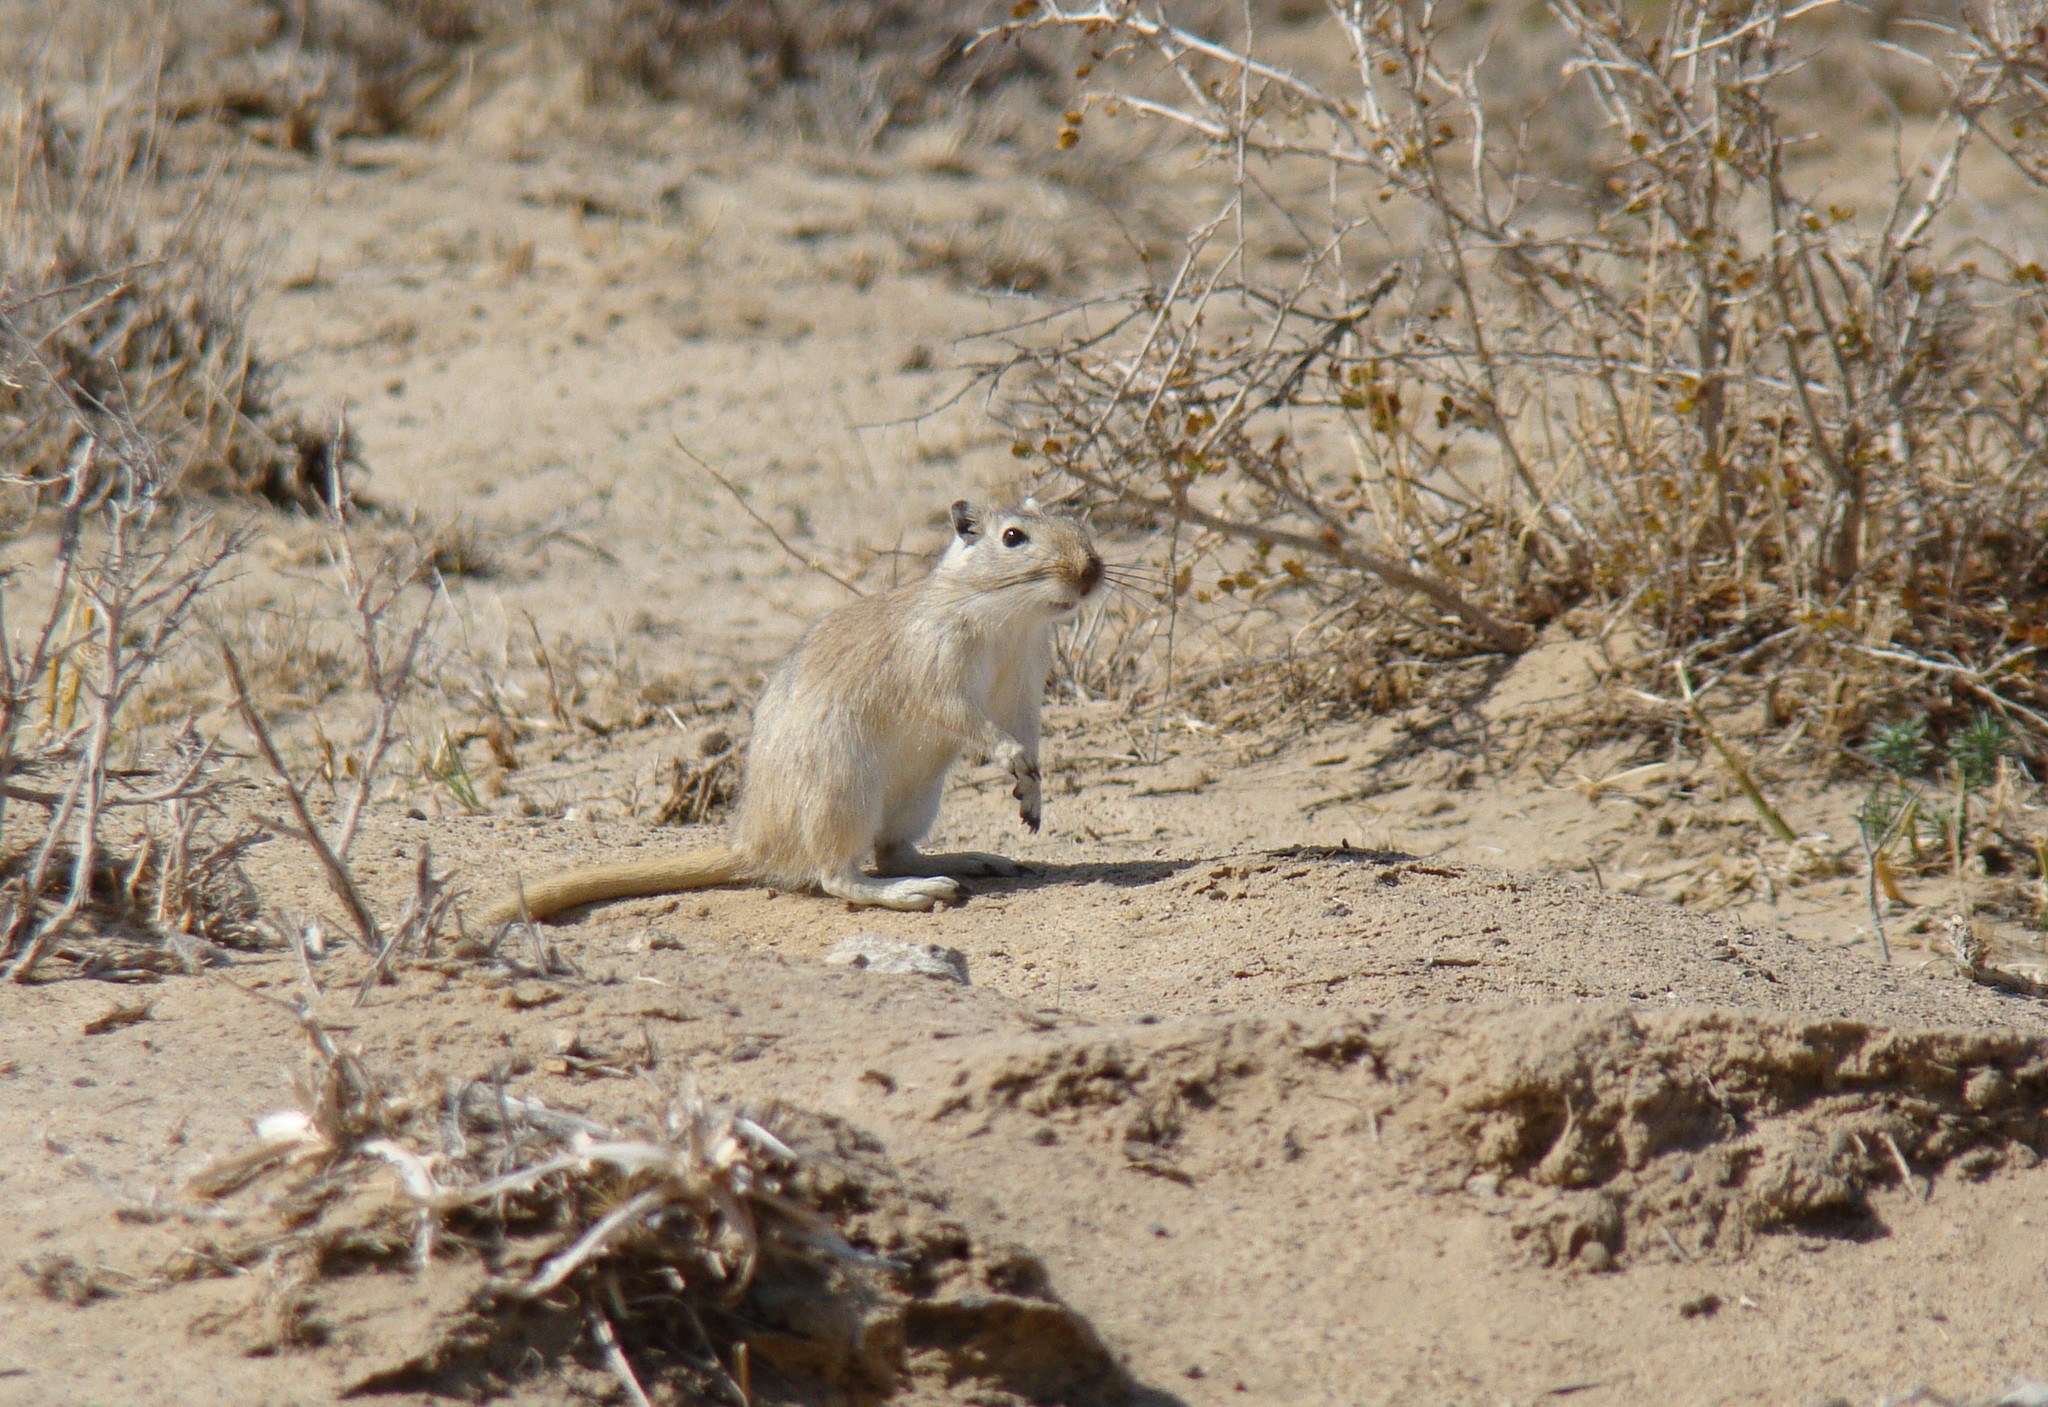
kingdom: Animalia
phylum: Chordata
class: Mammalia
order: Rodentia
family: Muridae
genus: Rhombomys
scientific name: Rhombomys opimus
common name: Great gerbil
